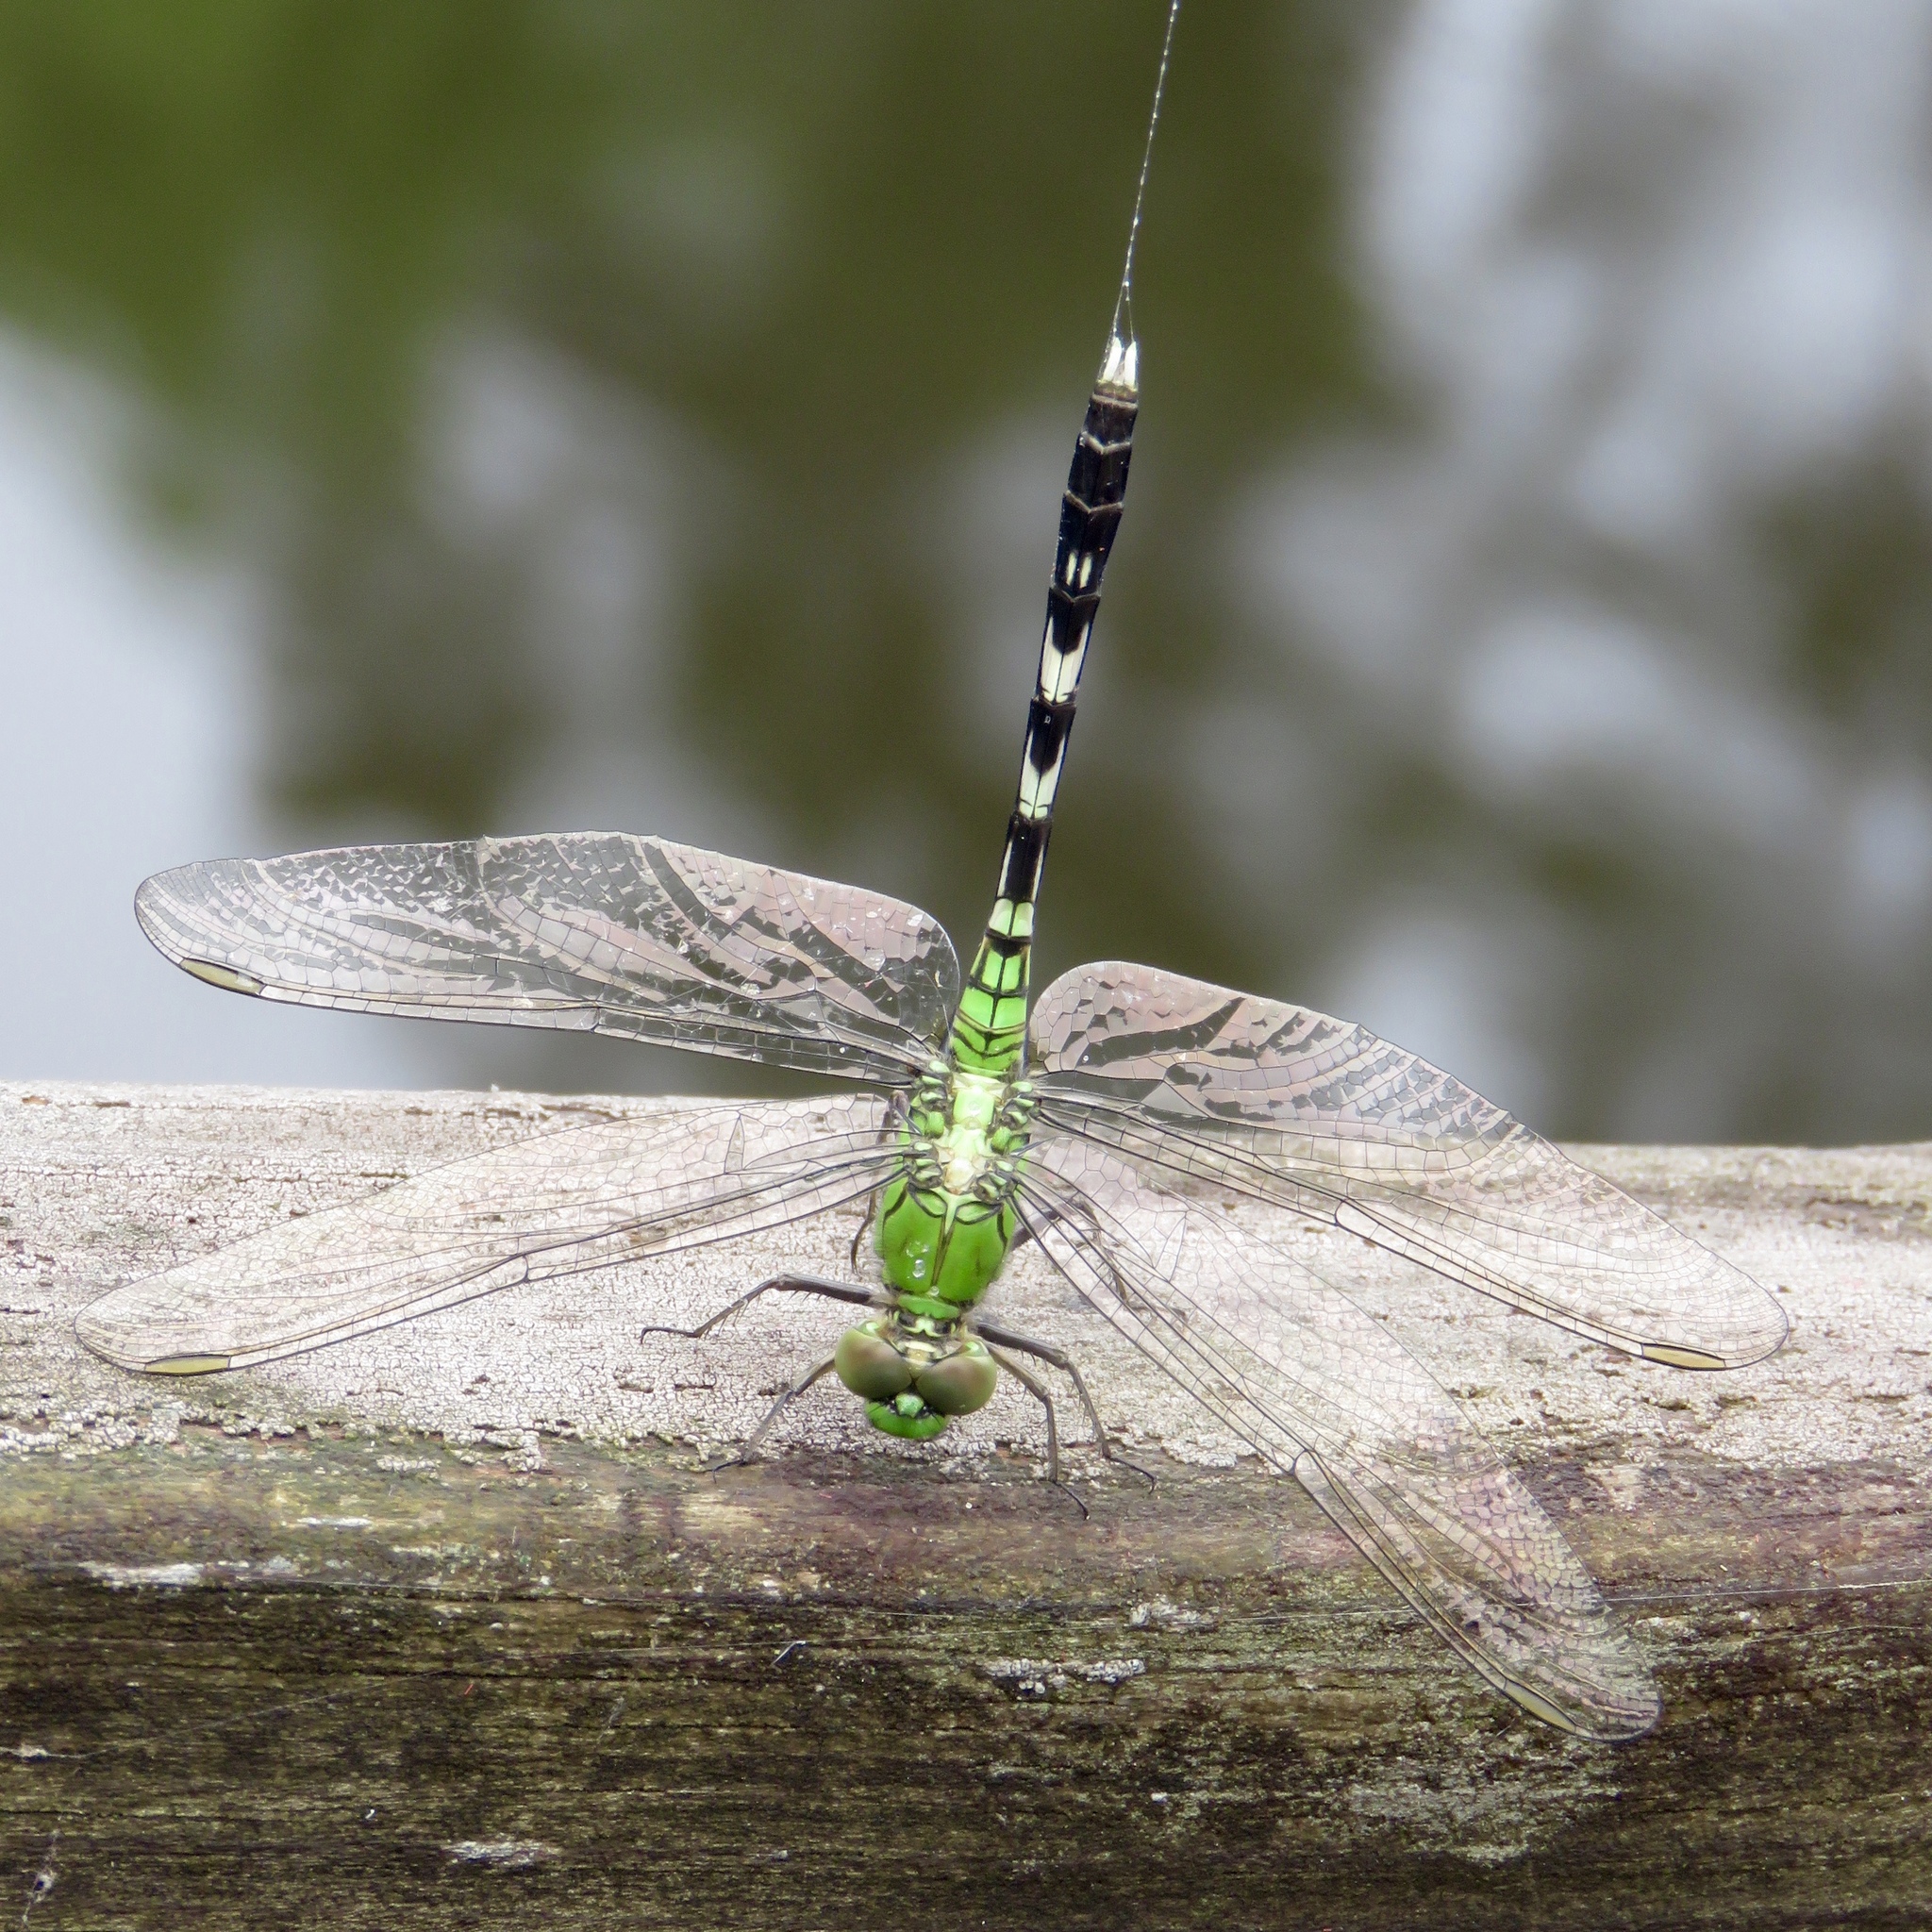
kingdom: Animalia
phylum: Arthropoda
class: Insecta
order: Odonata
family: Libellulidae
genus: Erythemis
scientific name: Erythemis simplicicollis
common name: Eastern pondhawk
